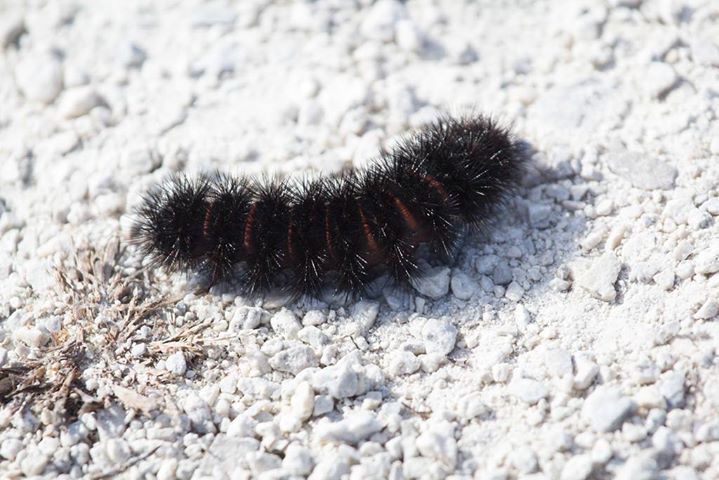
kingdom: Animalia
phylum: Arthropoda
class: Insecta
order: Lepidoptera
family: Erebidae
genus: Hypercompe
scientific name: Hypercompe scribonia
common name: Giant leopard moth
